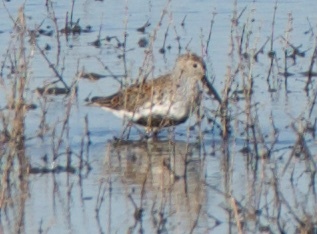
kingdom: Animalia
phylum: Chordata
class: Aves
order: Charadriiformes
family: Scolopacidae
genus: Calidris
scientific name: Calidris alpina
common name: Dunlin
